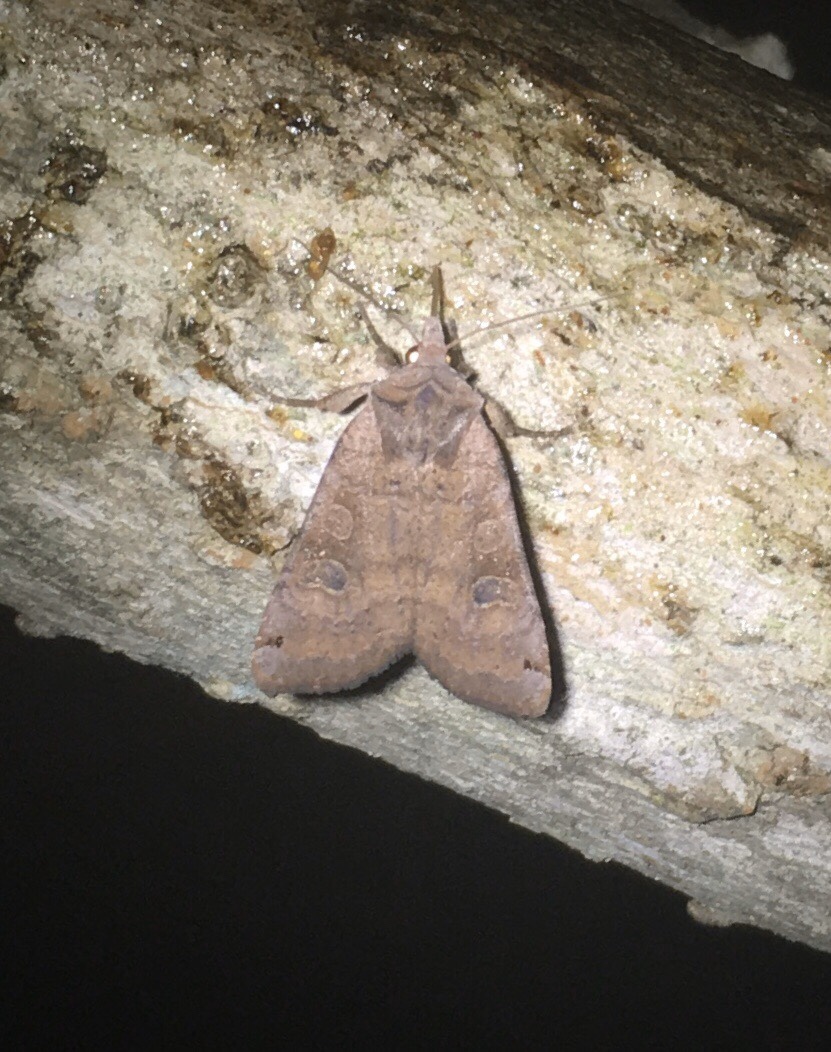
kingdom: Animalia
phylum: Arthropoda
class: Insecta
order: Lepidoptera
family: Noctuidae
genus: Xestia
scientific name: Xestia smithii
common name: Smith's dart
